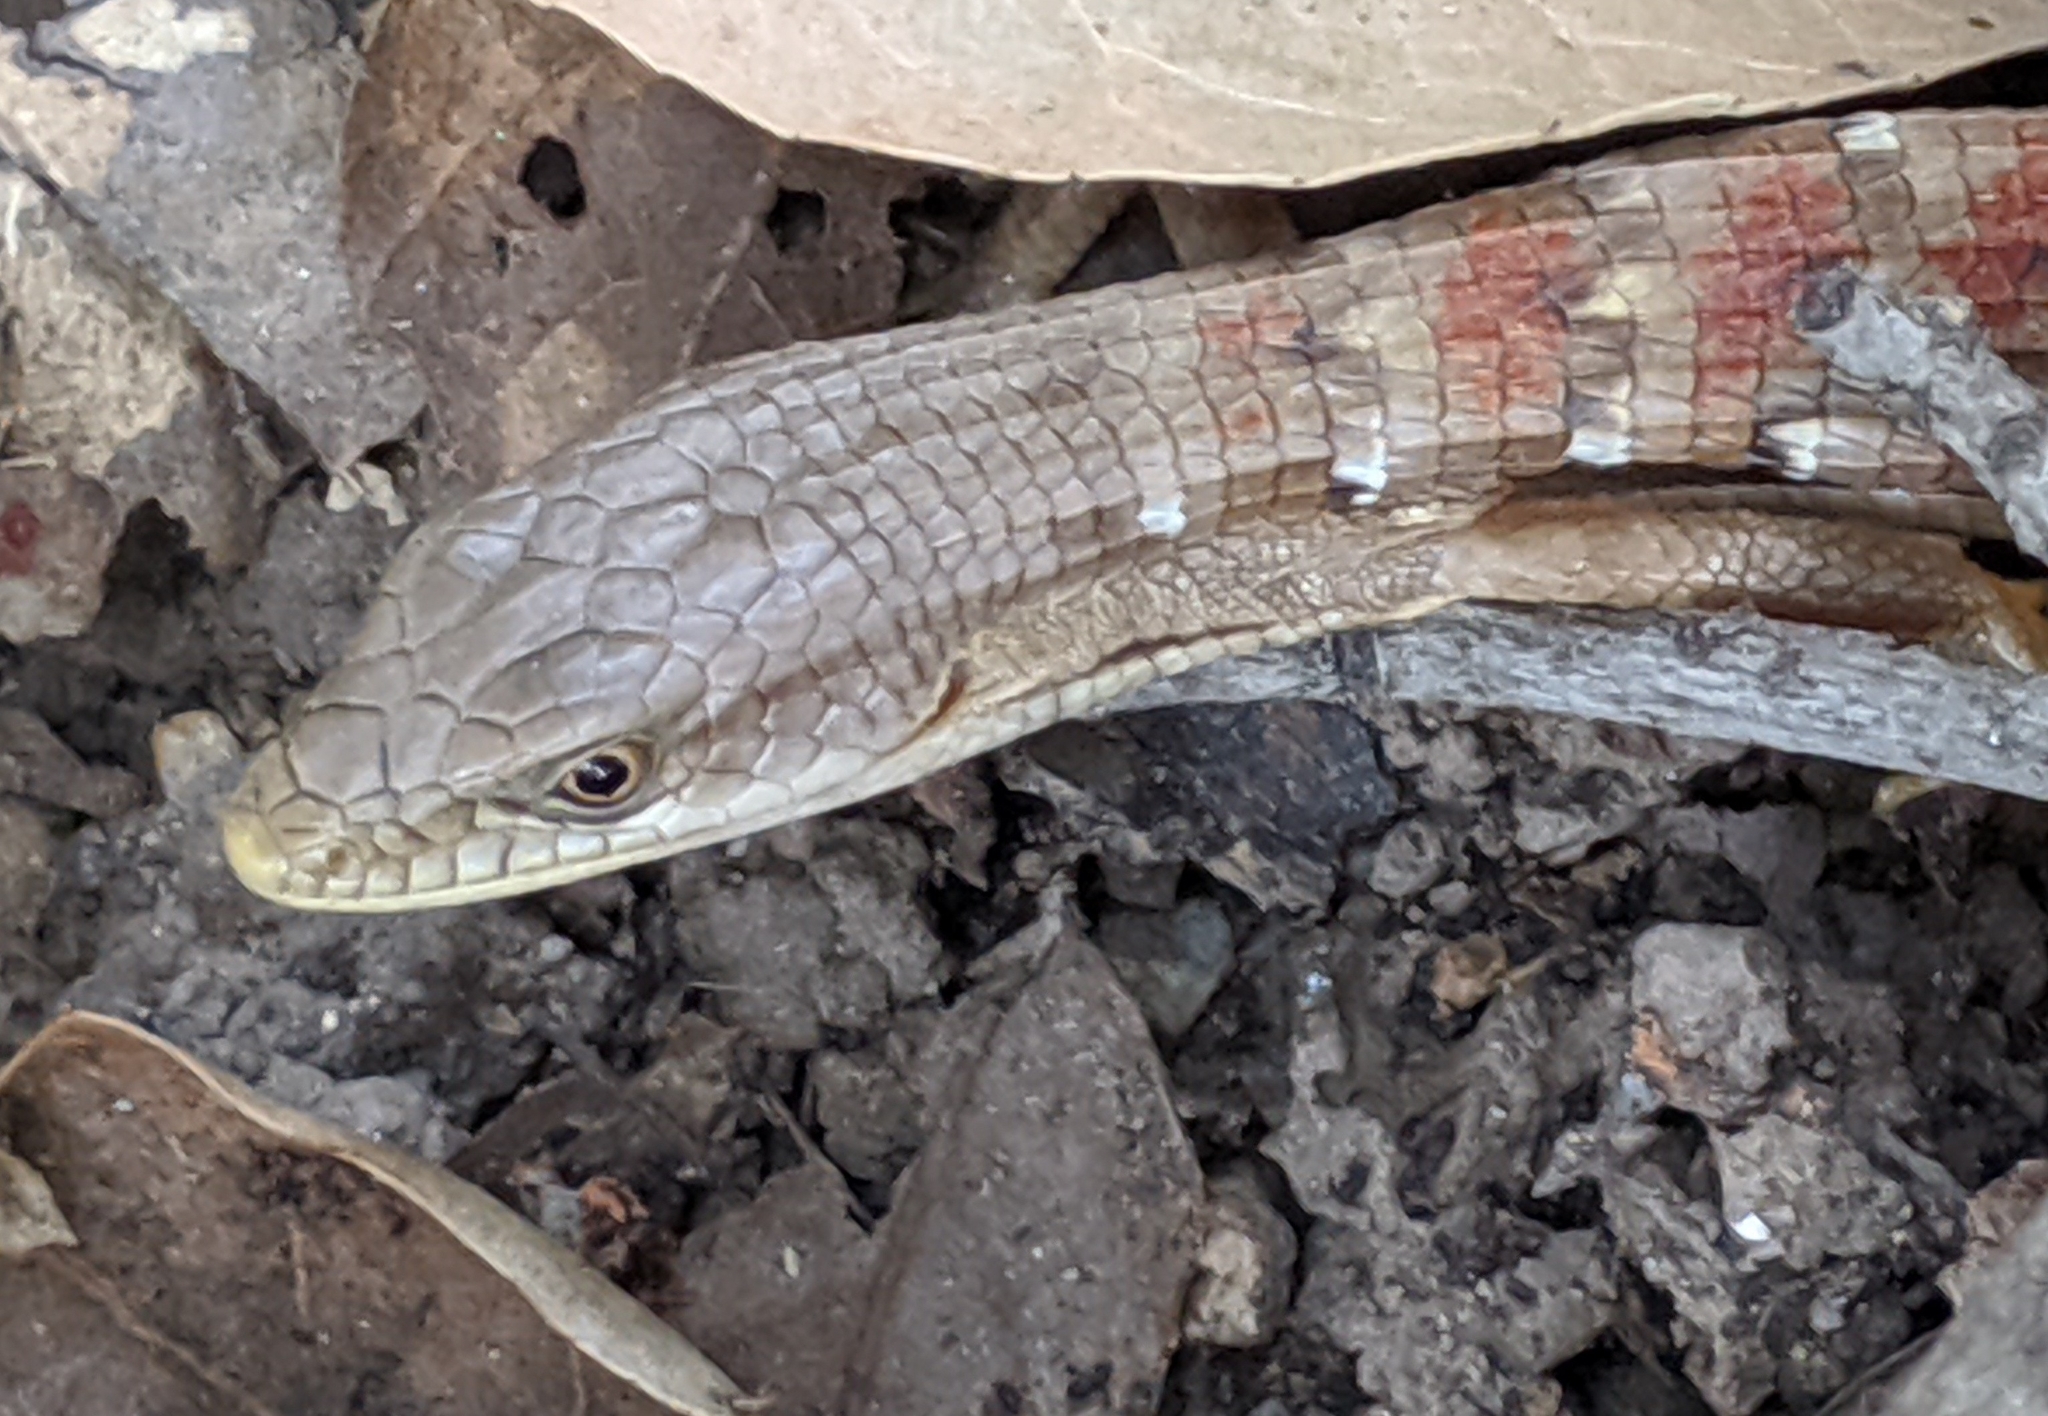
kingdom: Animalia
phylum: Chordata
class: Squamata
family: Anguidae
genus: Elgaria
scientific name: Elgaria multicarinata
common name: Southern alligator lizard
